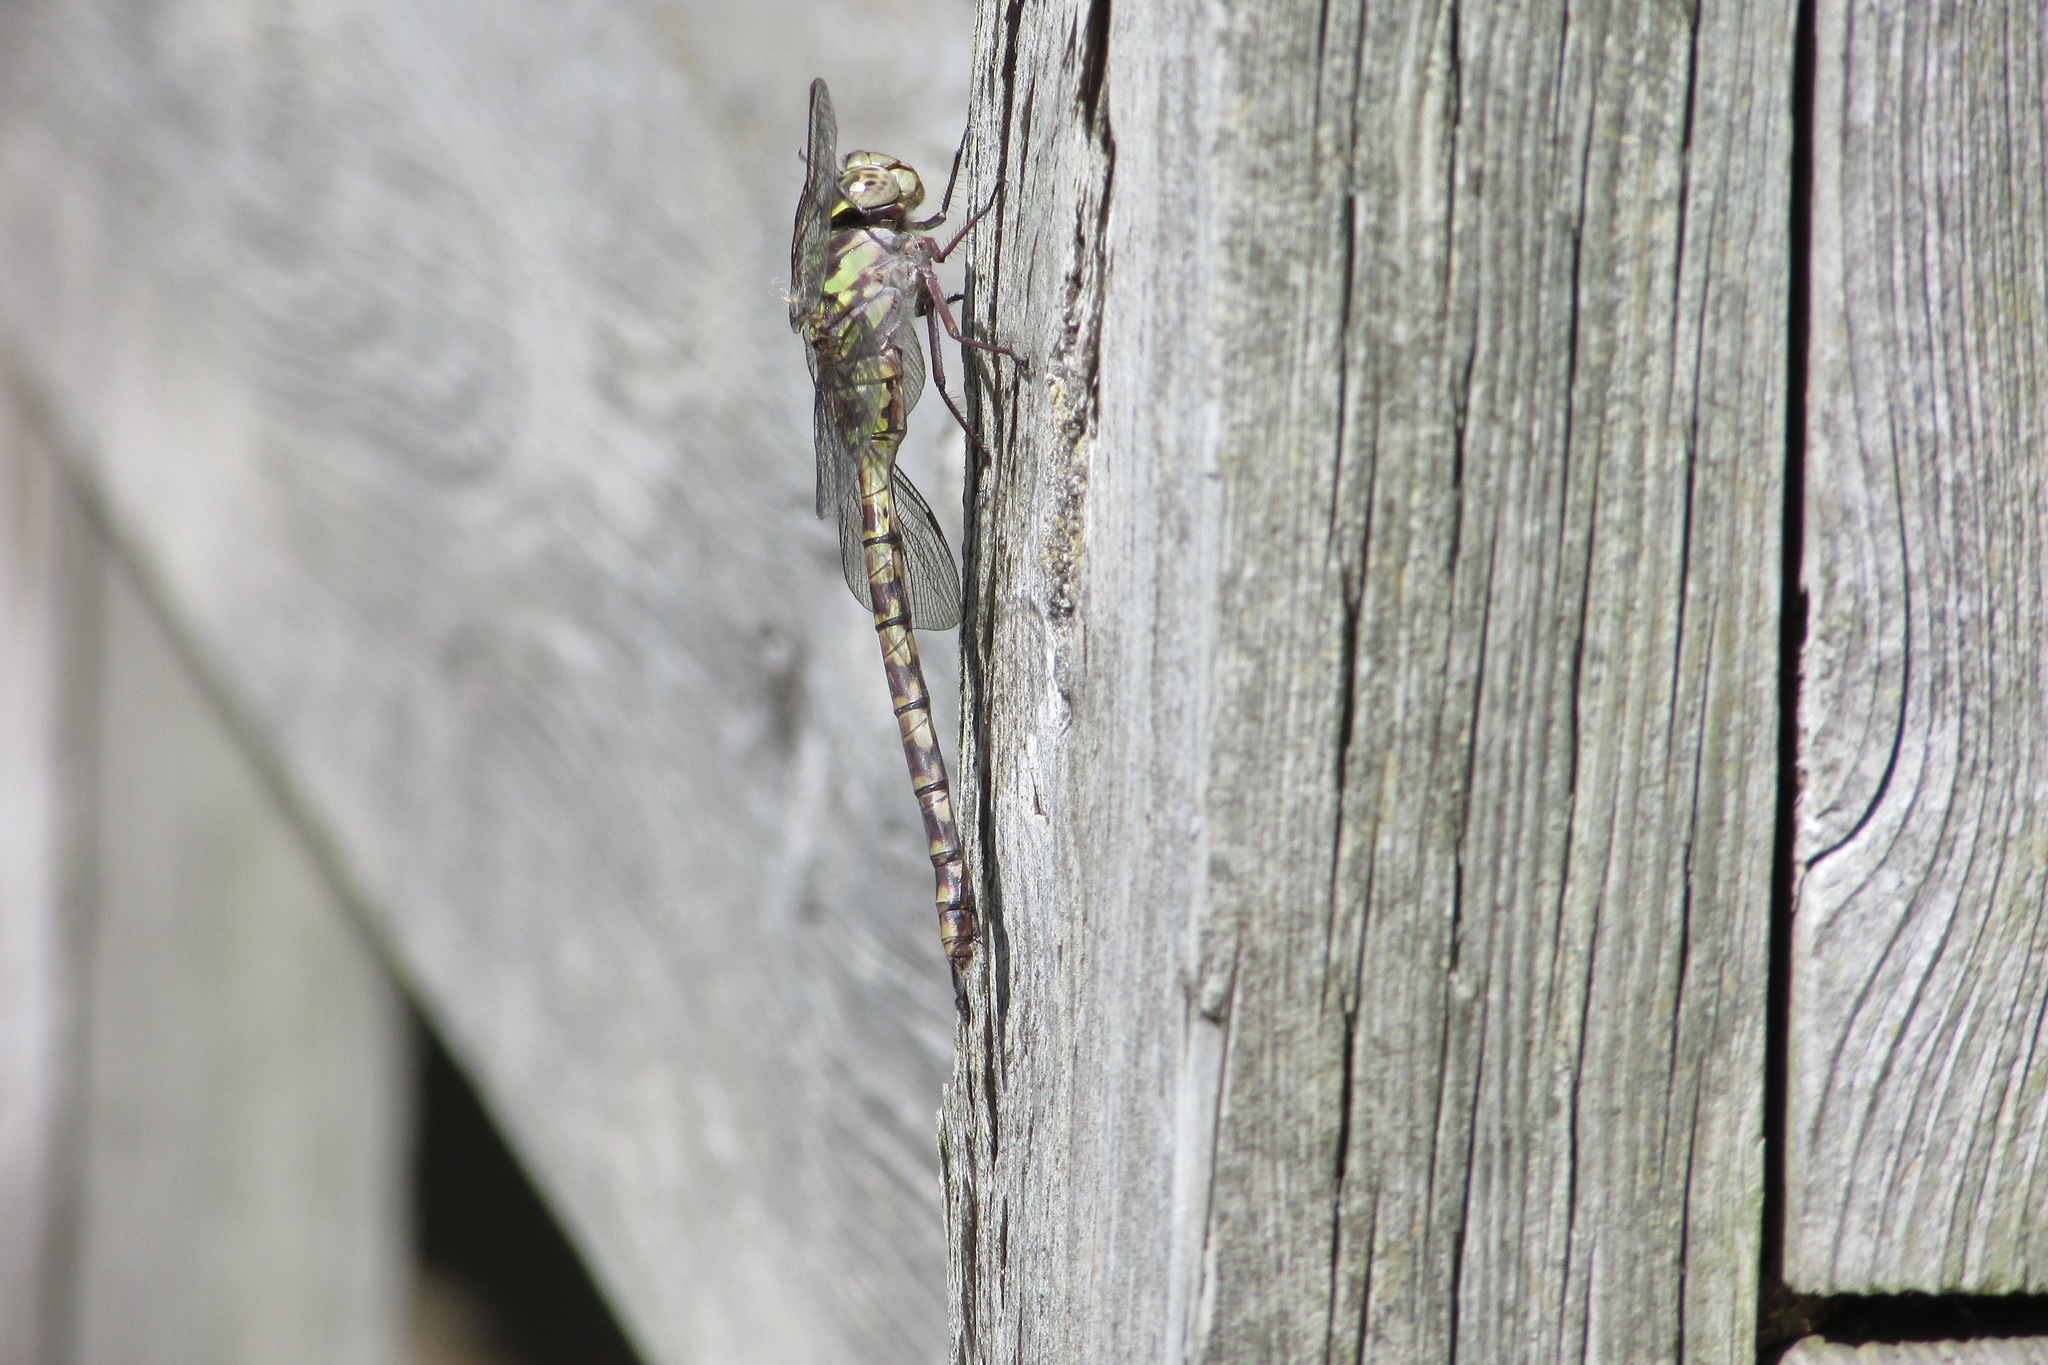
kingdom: Animalia
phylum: Arthropoda
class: Insecta
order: Odonata
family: Aeshnidae
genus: Aeshna
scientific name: Aeshna clepsydra
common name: Mottled darner
